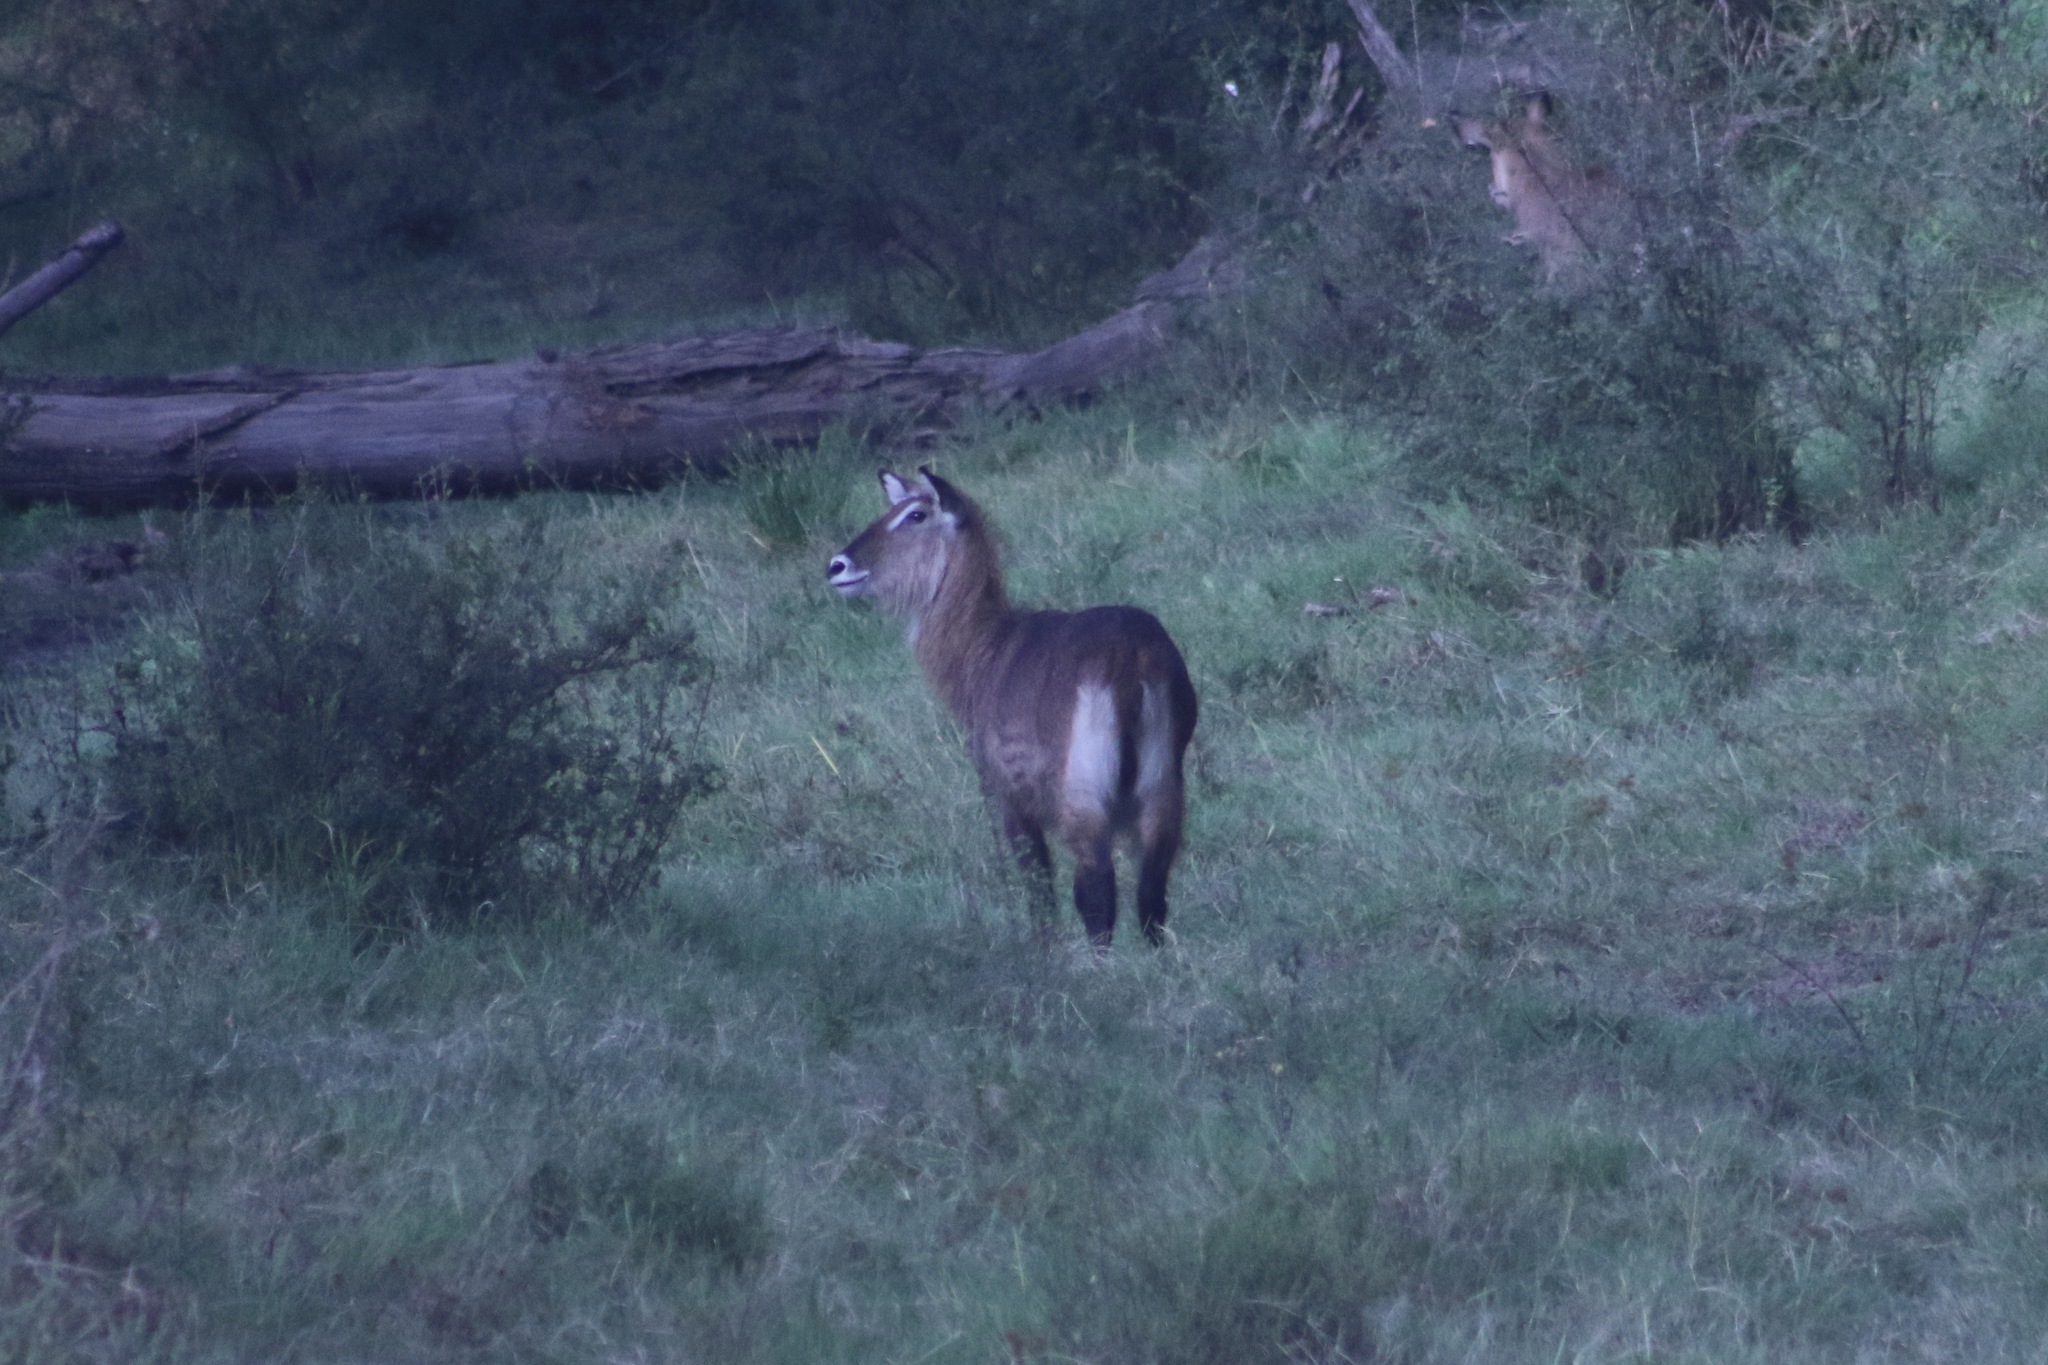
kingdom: Animalia
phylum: Chordata
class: Mammalia
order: Artiodactyla
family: Bovidae
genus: Kobus
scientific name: Kobus ellipsiprymnus
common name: Waterbuck
